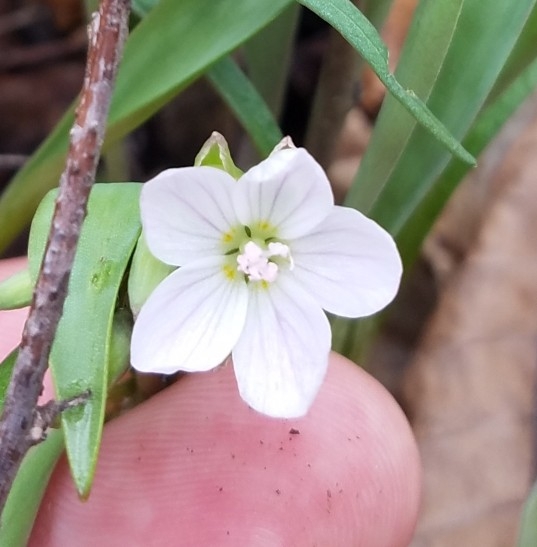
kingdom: Plantae
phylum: Tracheophyta
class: Magnoliopsida
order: Caryophyllales
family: Montiaceae
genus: Claytonia
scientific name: Claytonia virginica
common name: Virginia springbeauty
